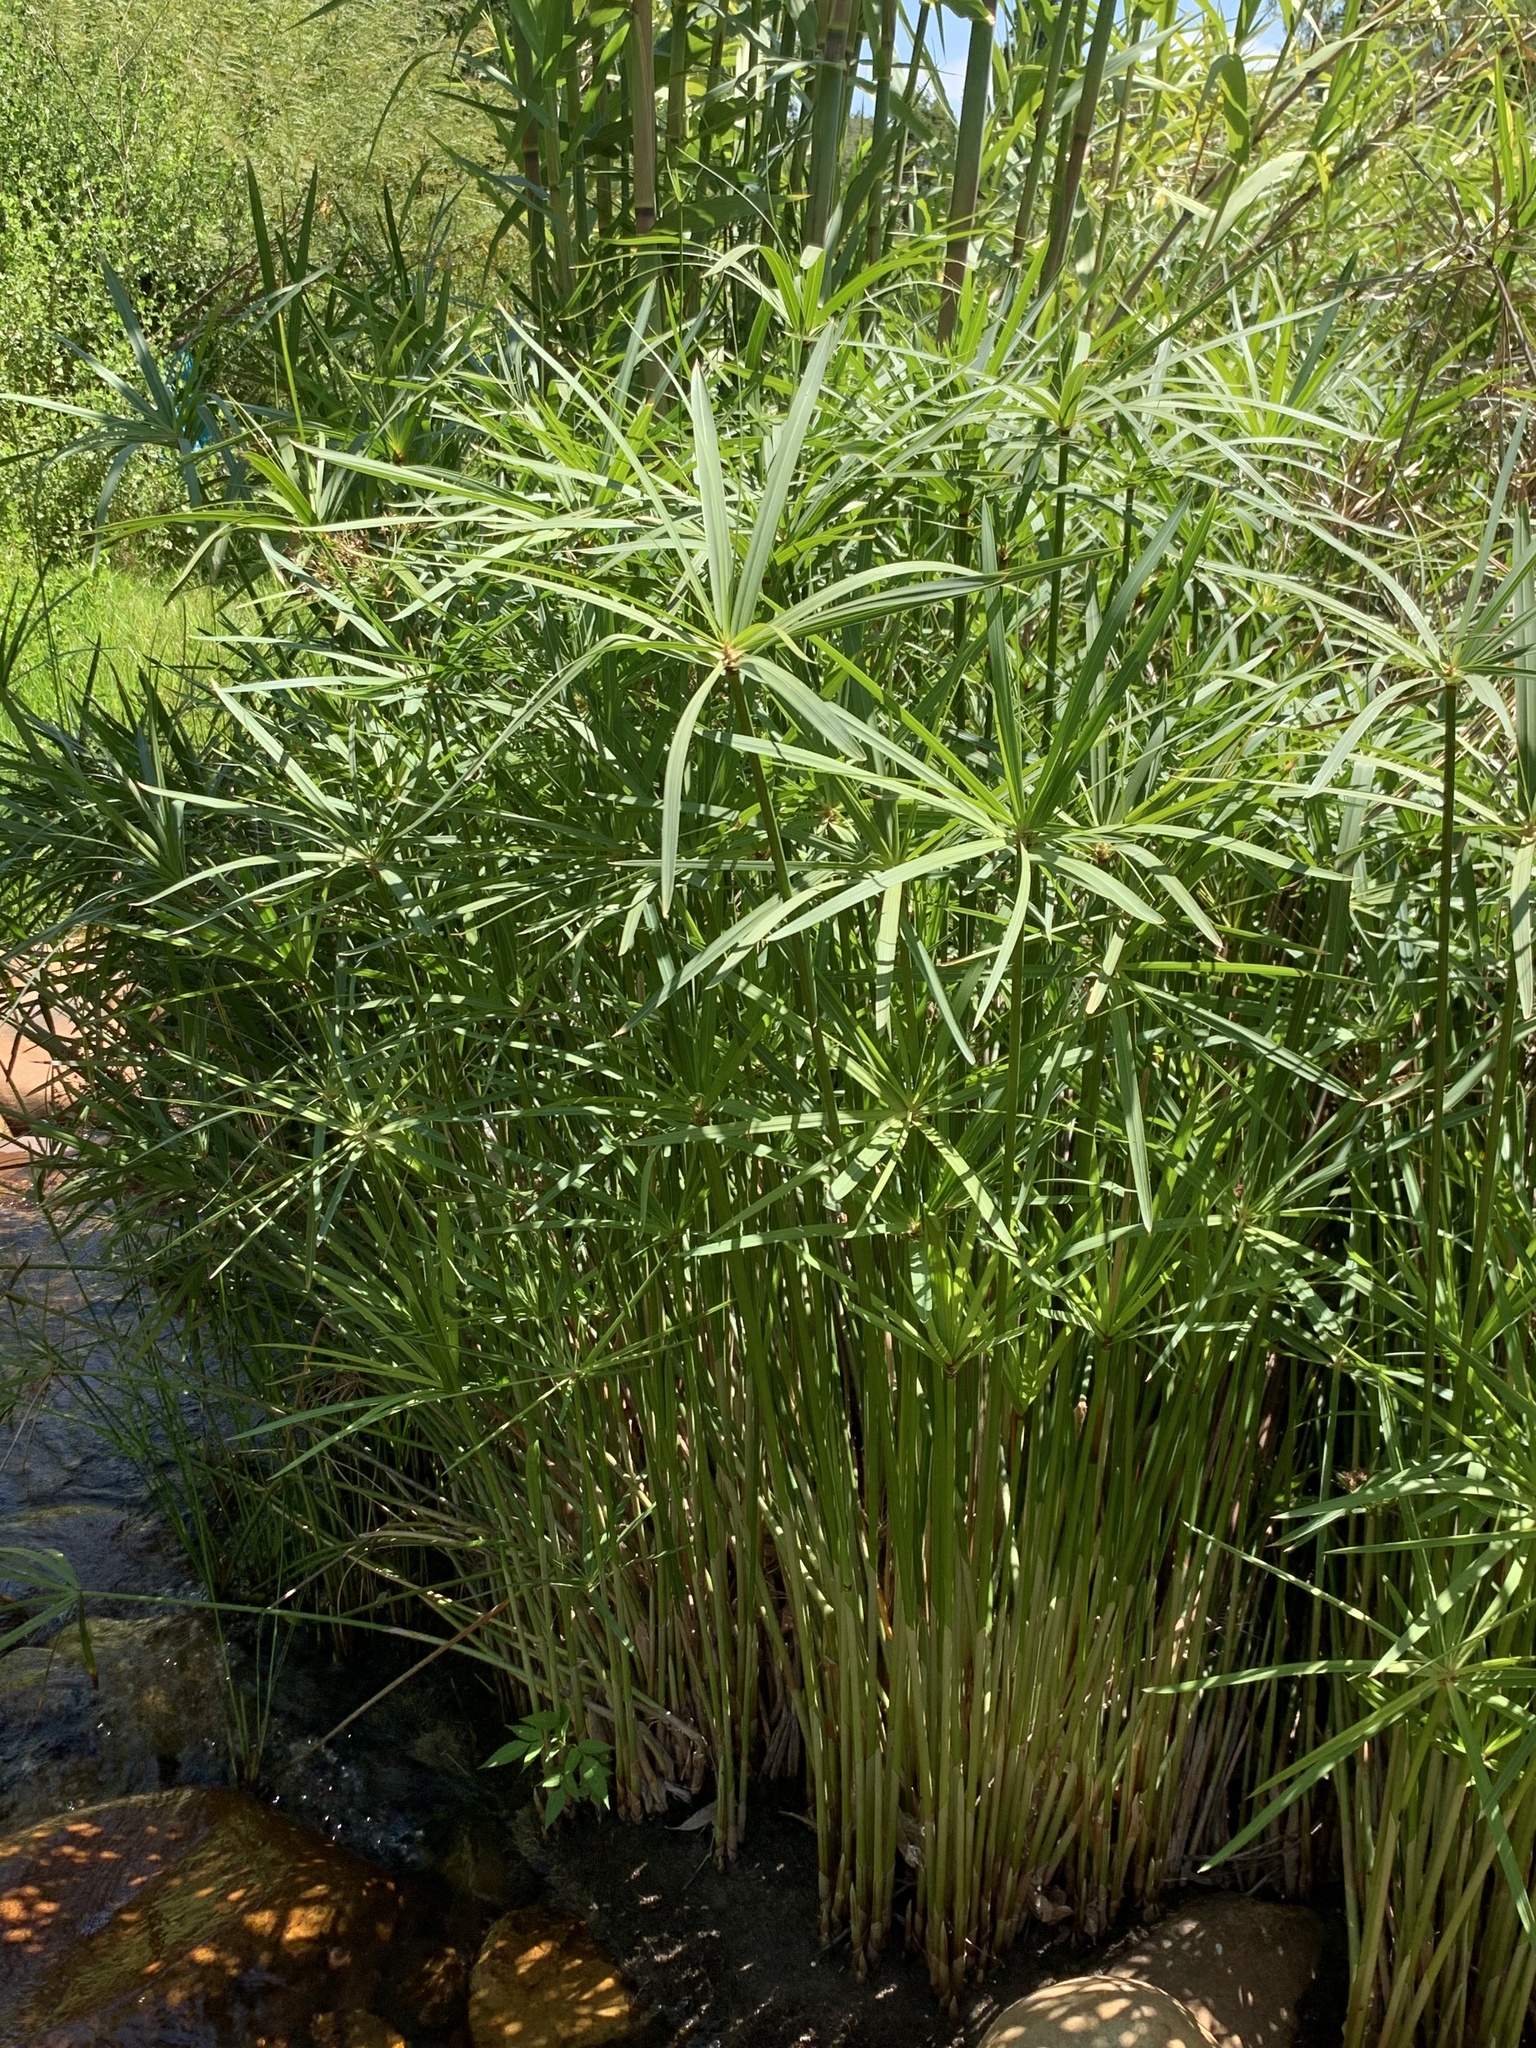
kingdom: Plantae
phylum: Tracheophyta
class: Liliopsida
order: Poales
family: Cyperaceae
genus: Cyperus
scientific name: Cyperus textilis
